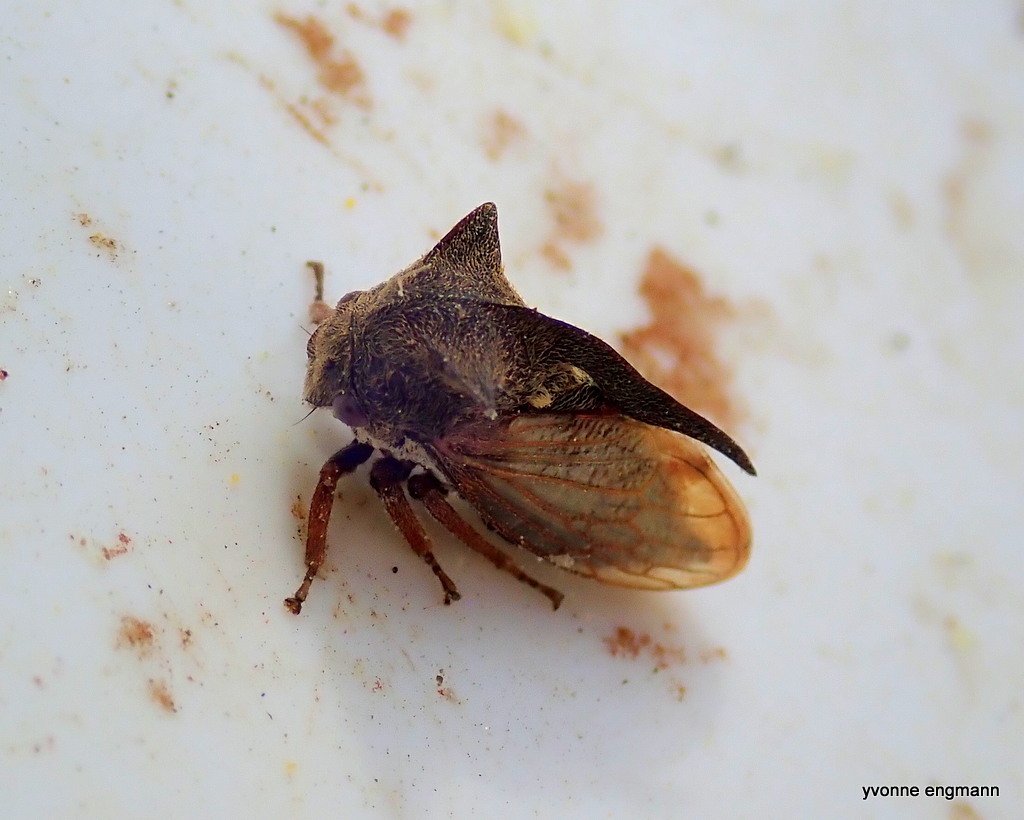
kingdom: Animalia
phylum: Arthropoda
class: Insecta
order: Hemiptera
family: Membracidae
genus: Centrotus
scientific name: Centrotus cornuta
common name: Treehopper
